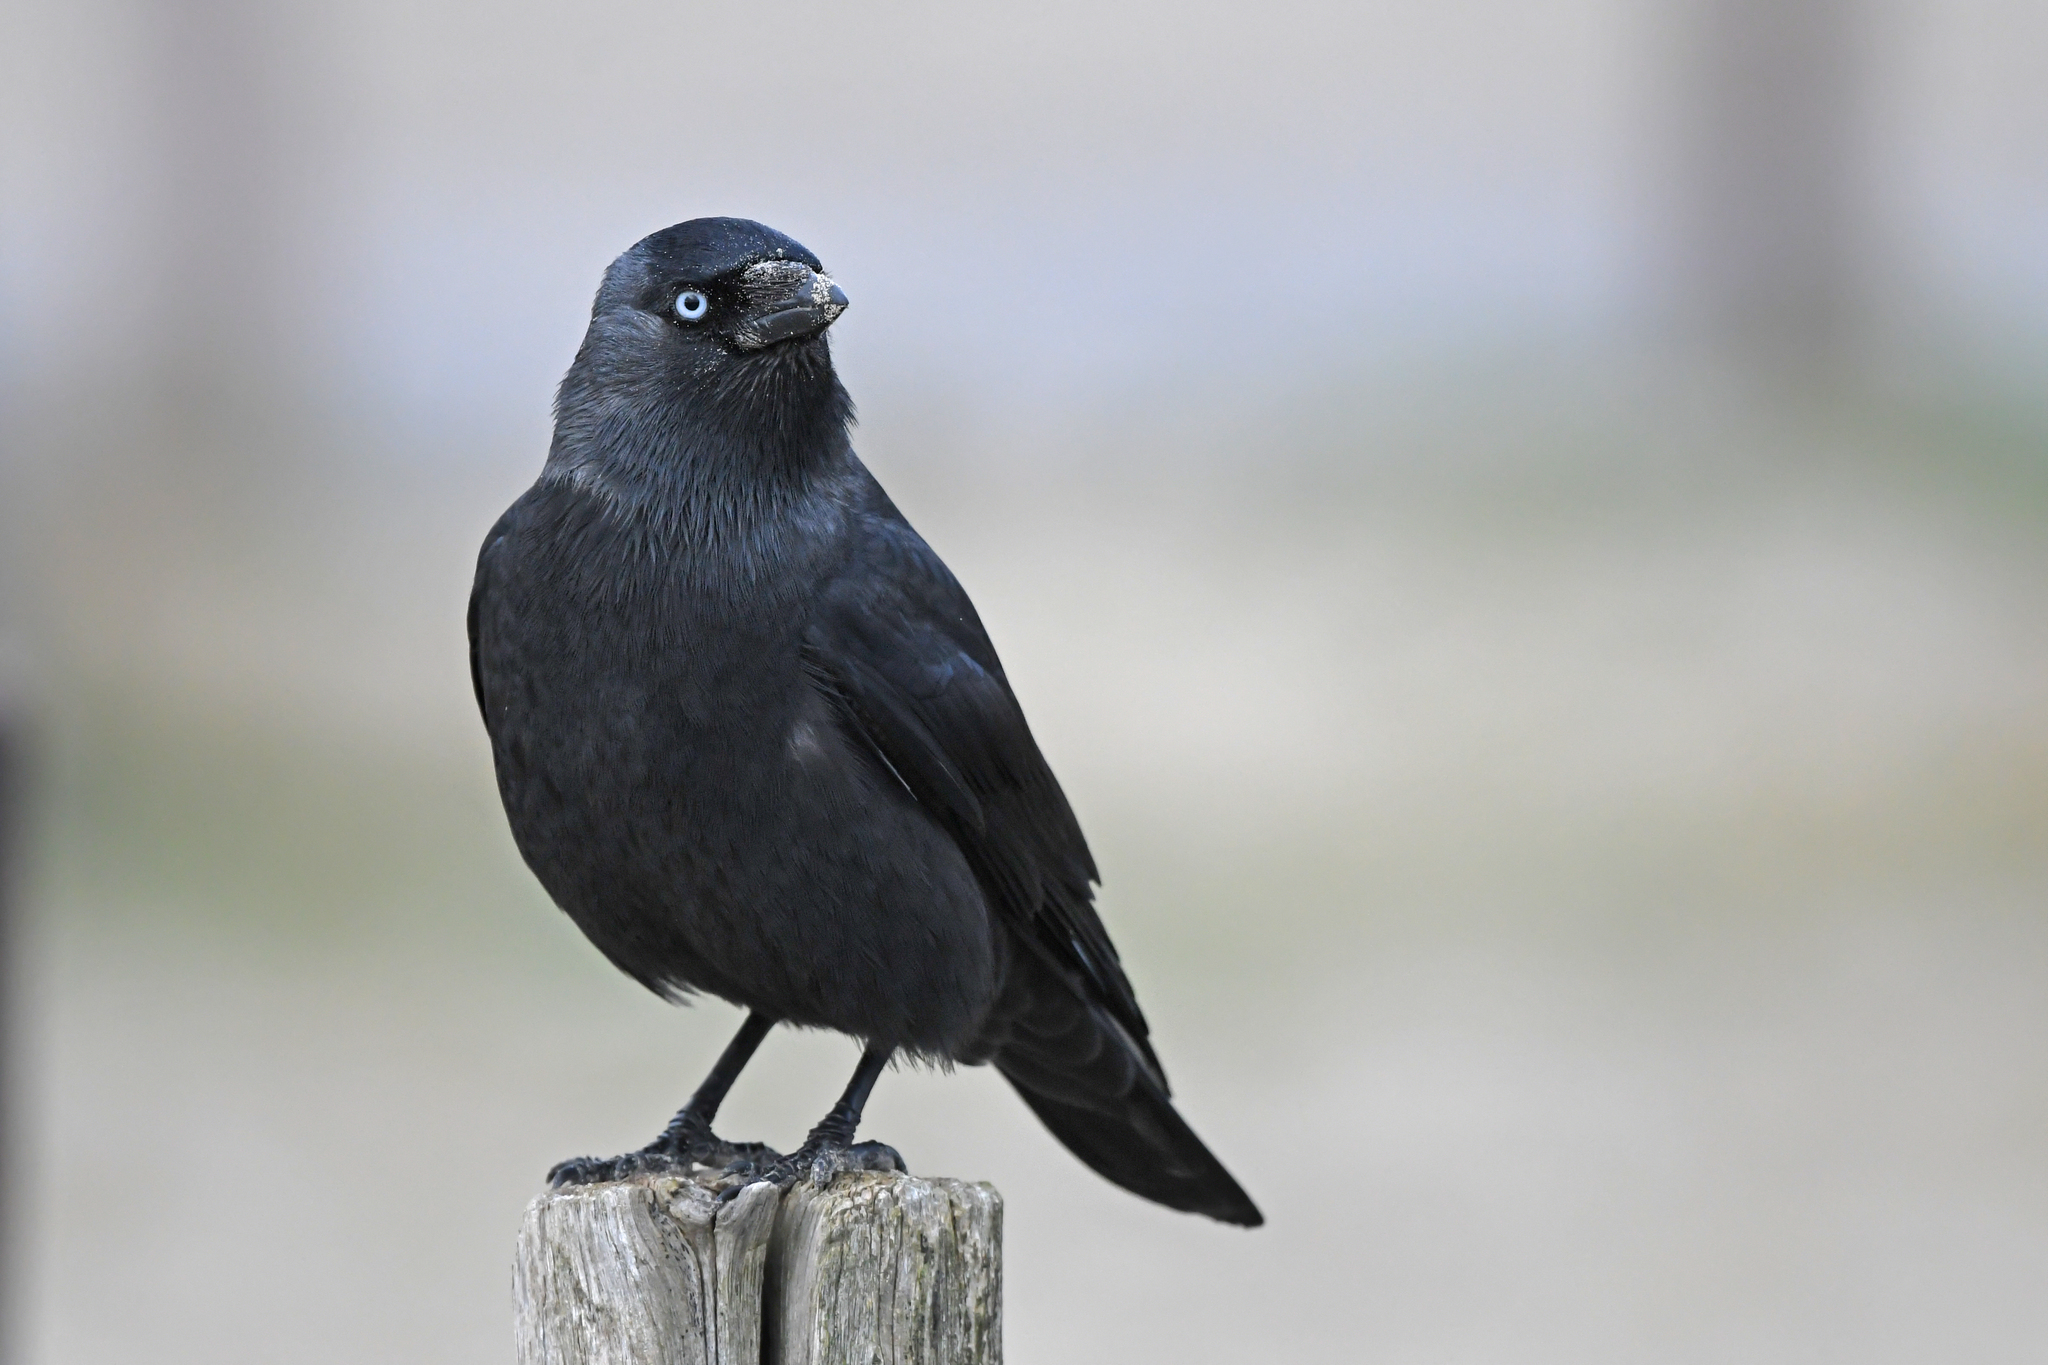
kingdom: Animalia
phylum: Chordata
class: Aves
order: Passeriformes
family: Corvidae
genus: Coloeus
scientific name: Coloeus monedula
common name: Western jackdaw
